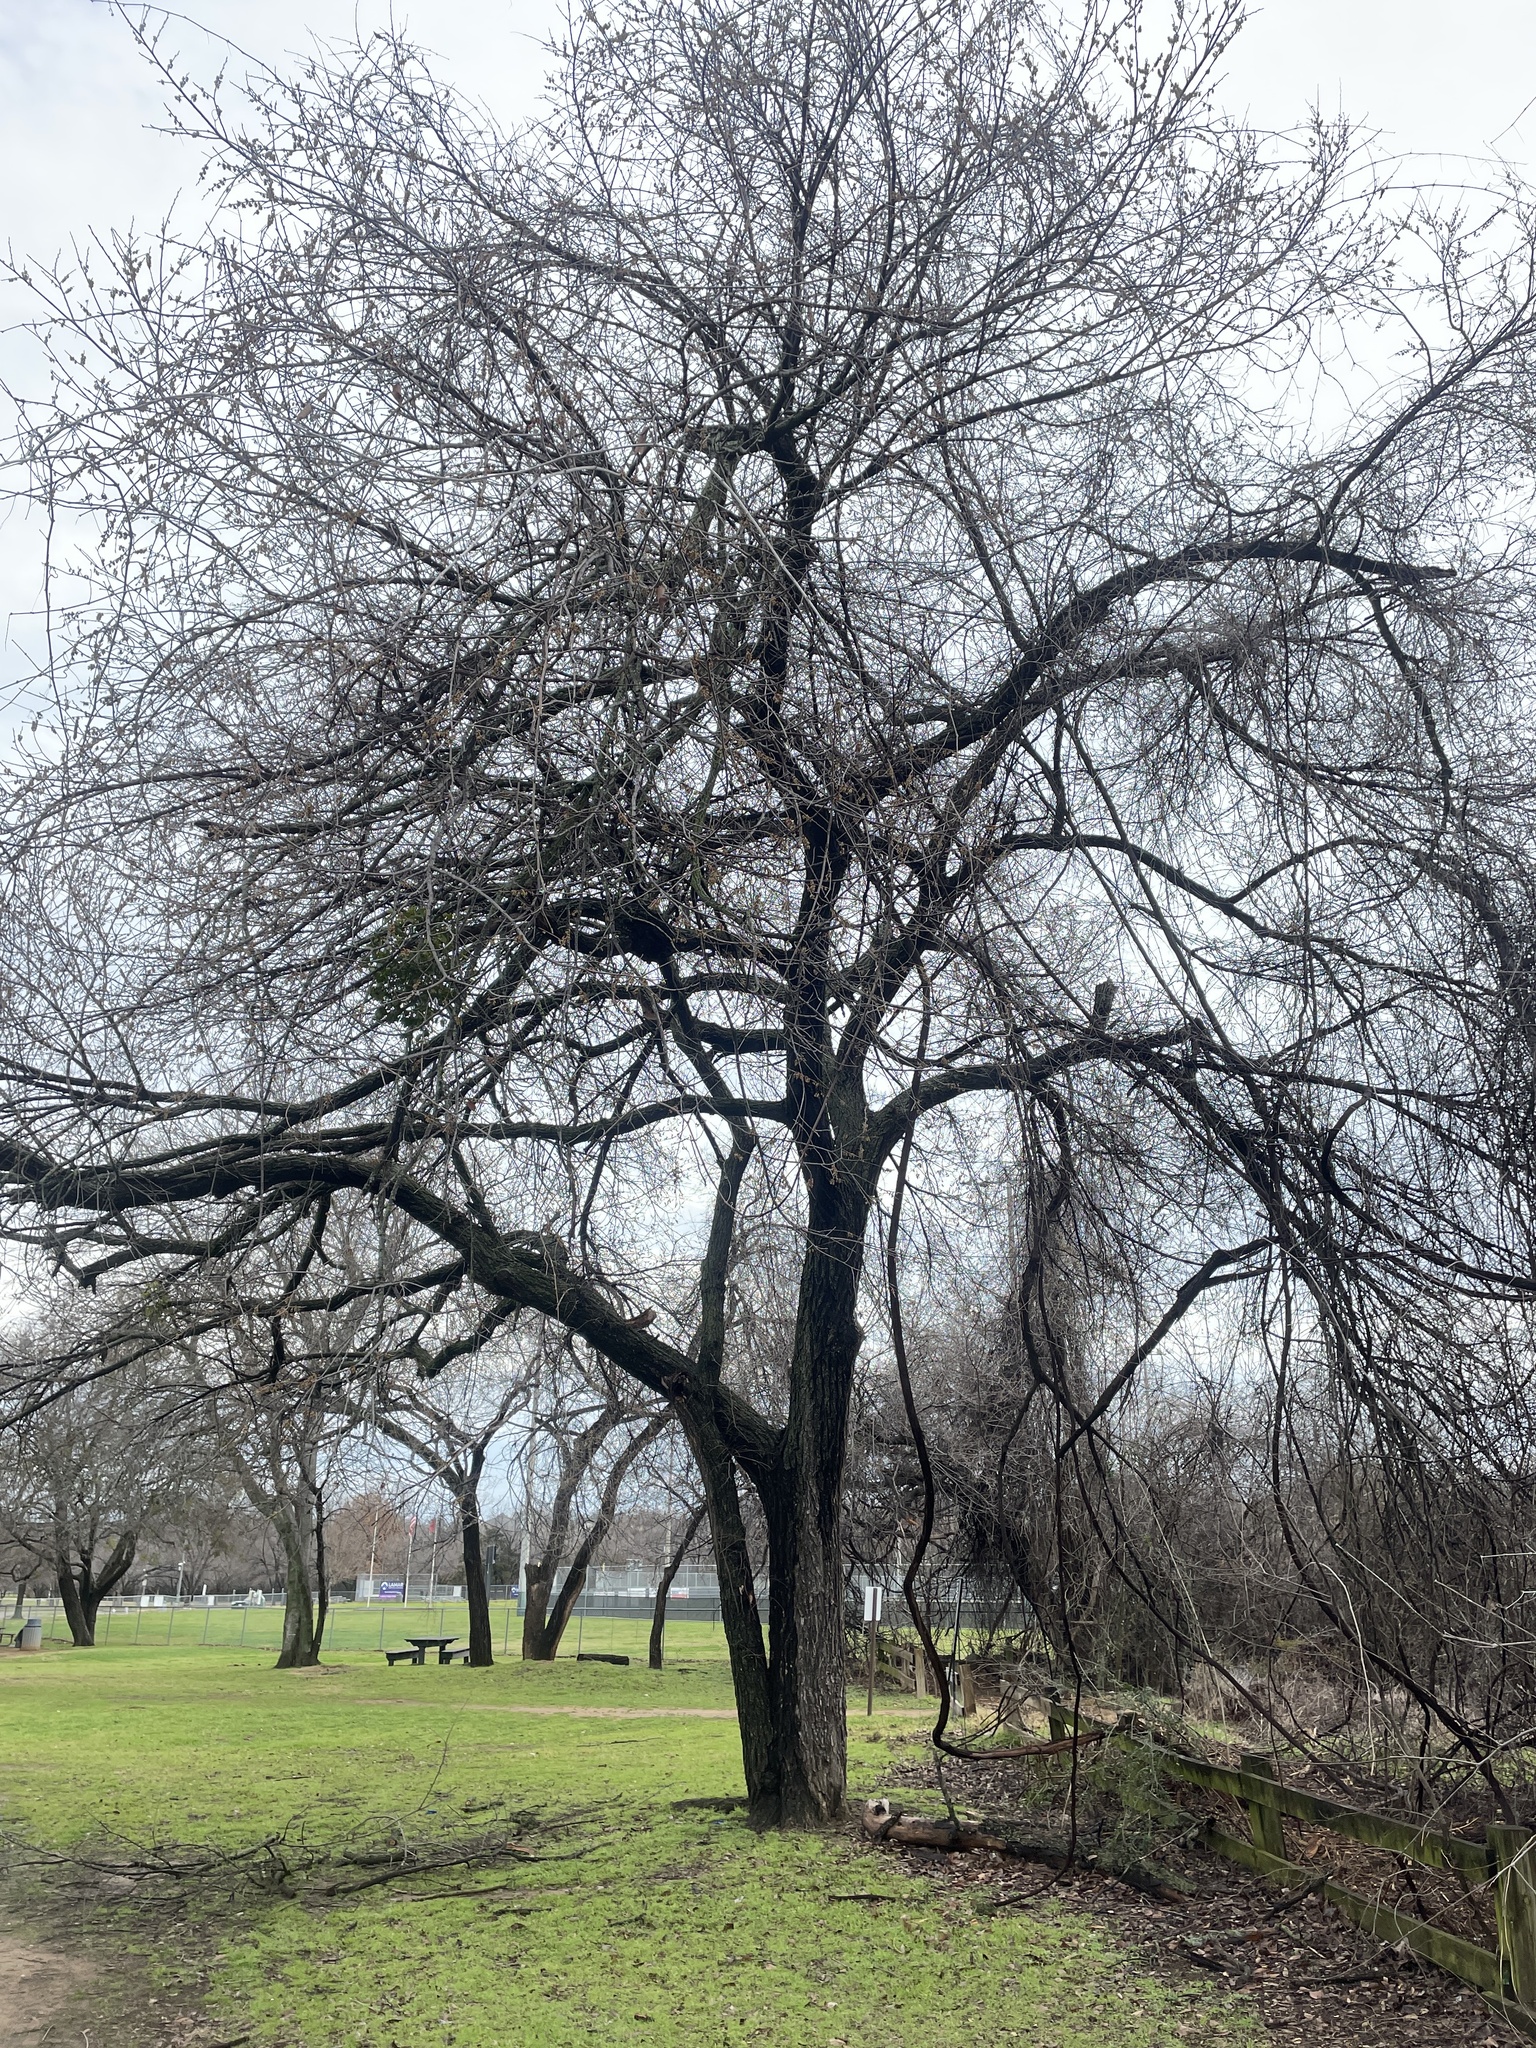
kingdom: Plantae
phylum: Tracheophyta
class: Magnoliopsida
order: Rosales
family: Ulmaceae
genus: Ulmus
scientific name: Ulmus americana
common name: American elm
